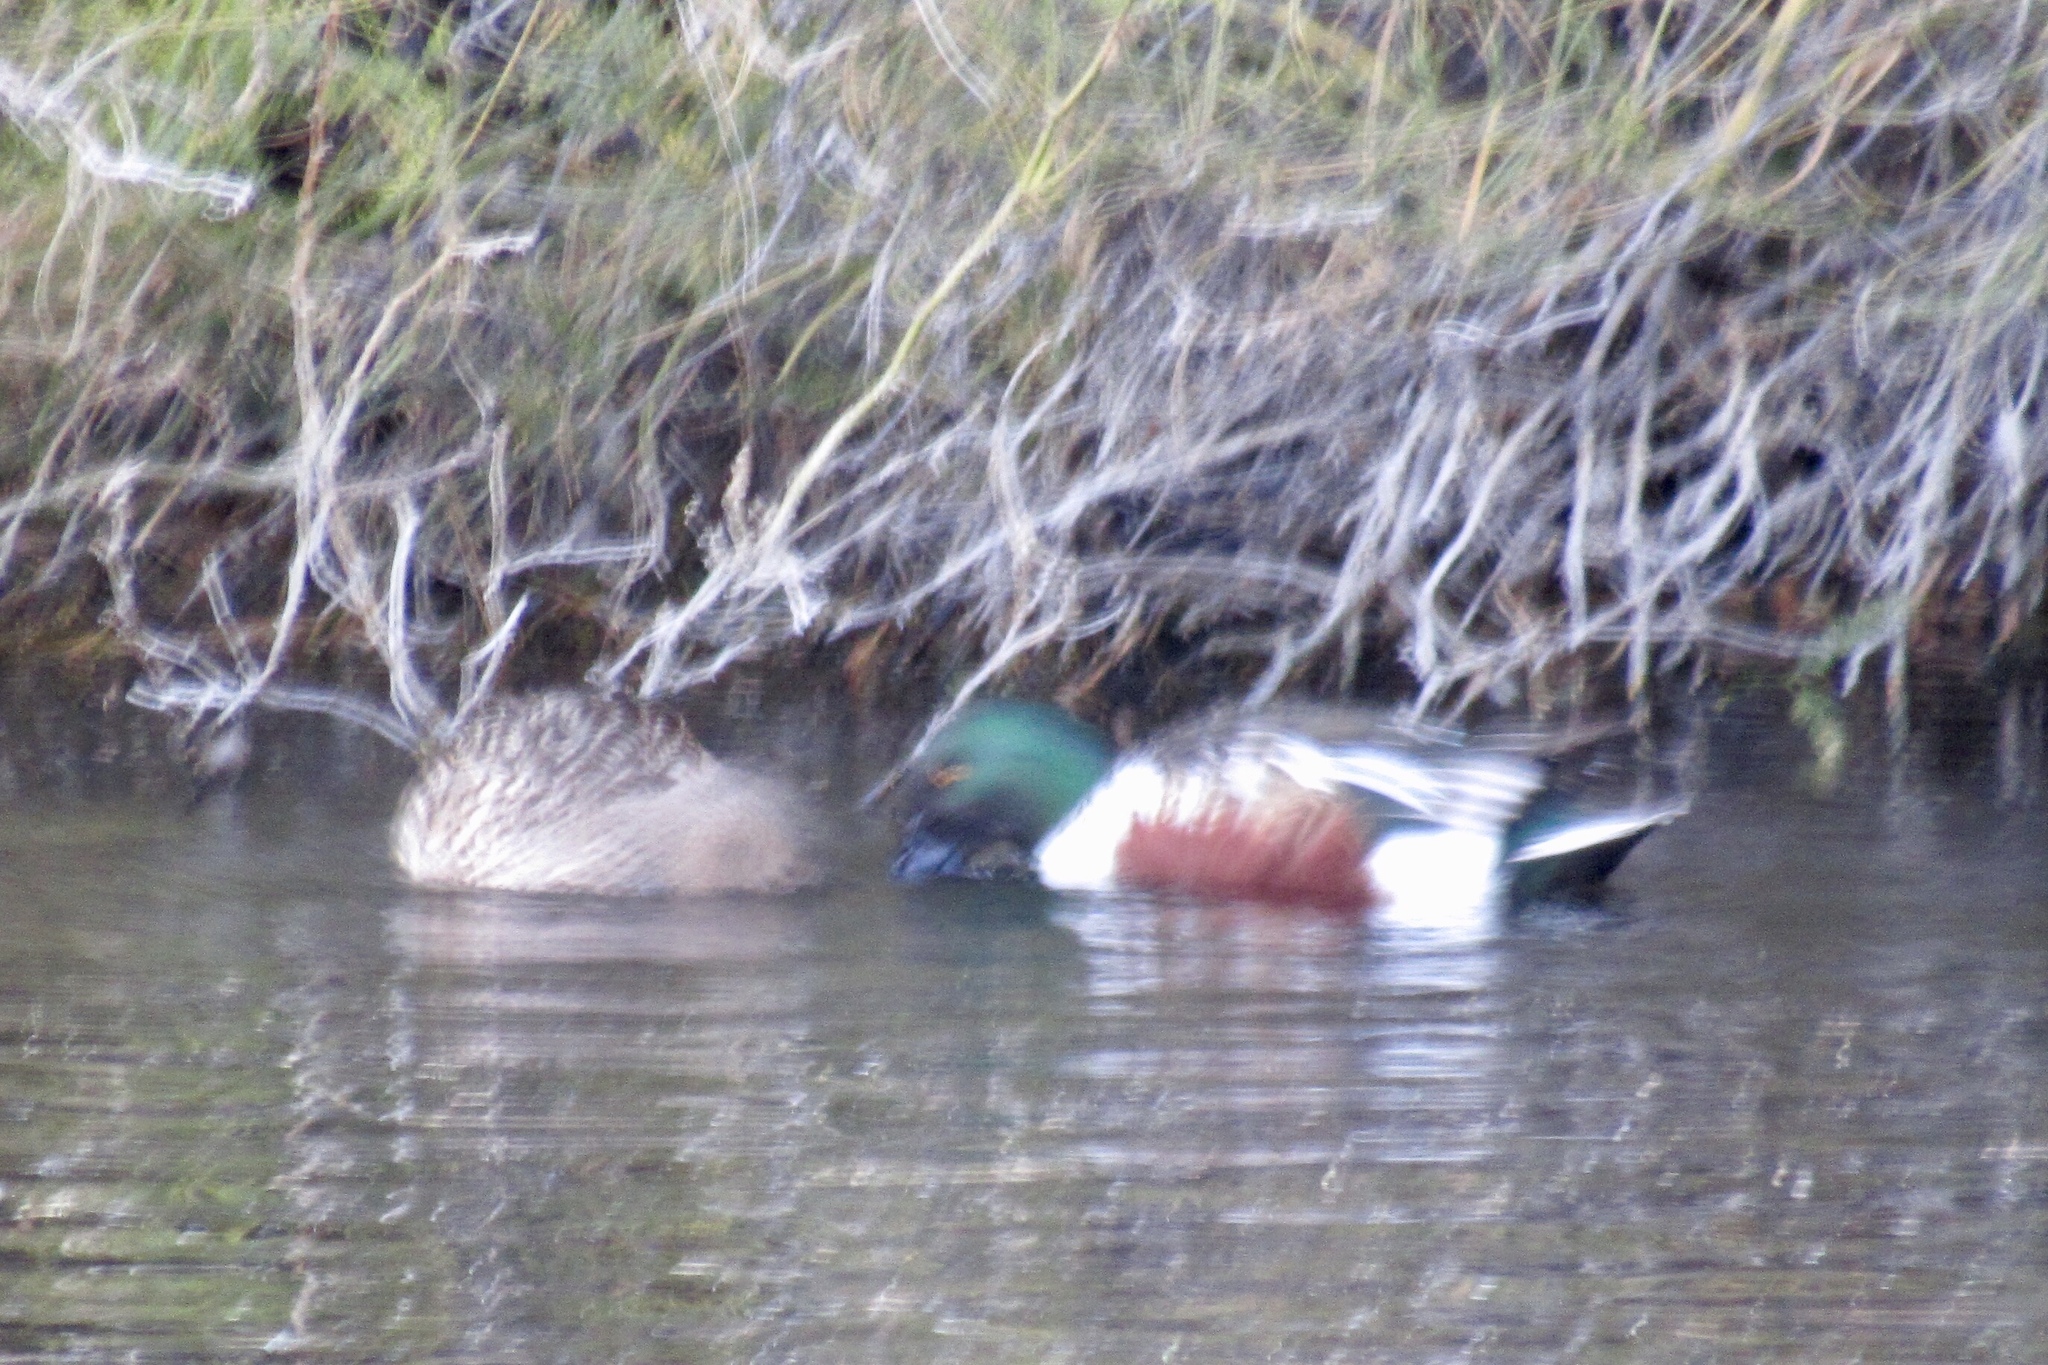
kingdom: Animalia
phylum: Chordata
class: Aves
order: Anseriformes
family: Anatidae
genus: Spatula
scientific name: Spatula clypeata
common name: Northern shoveler
